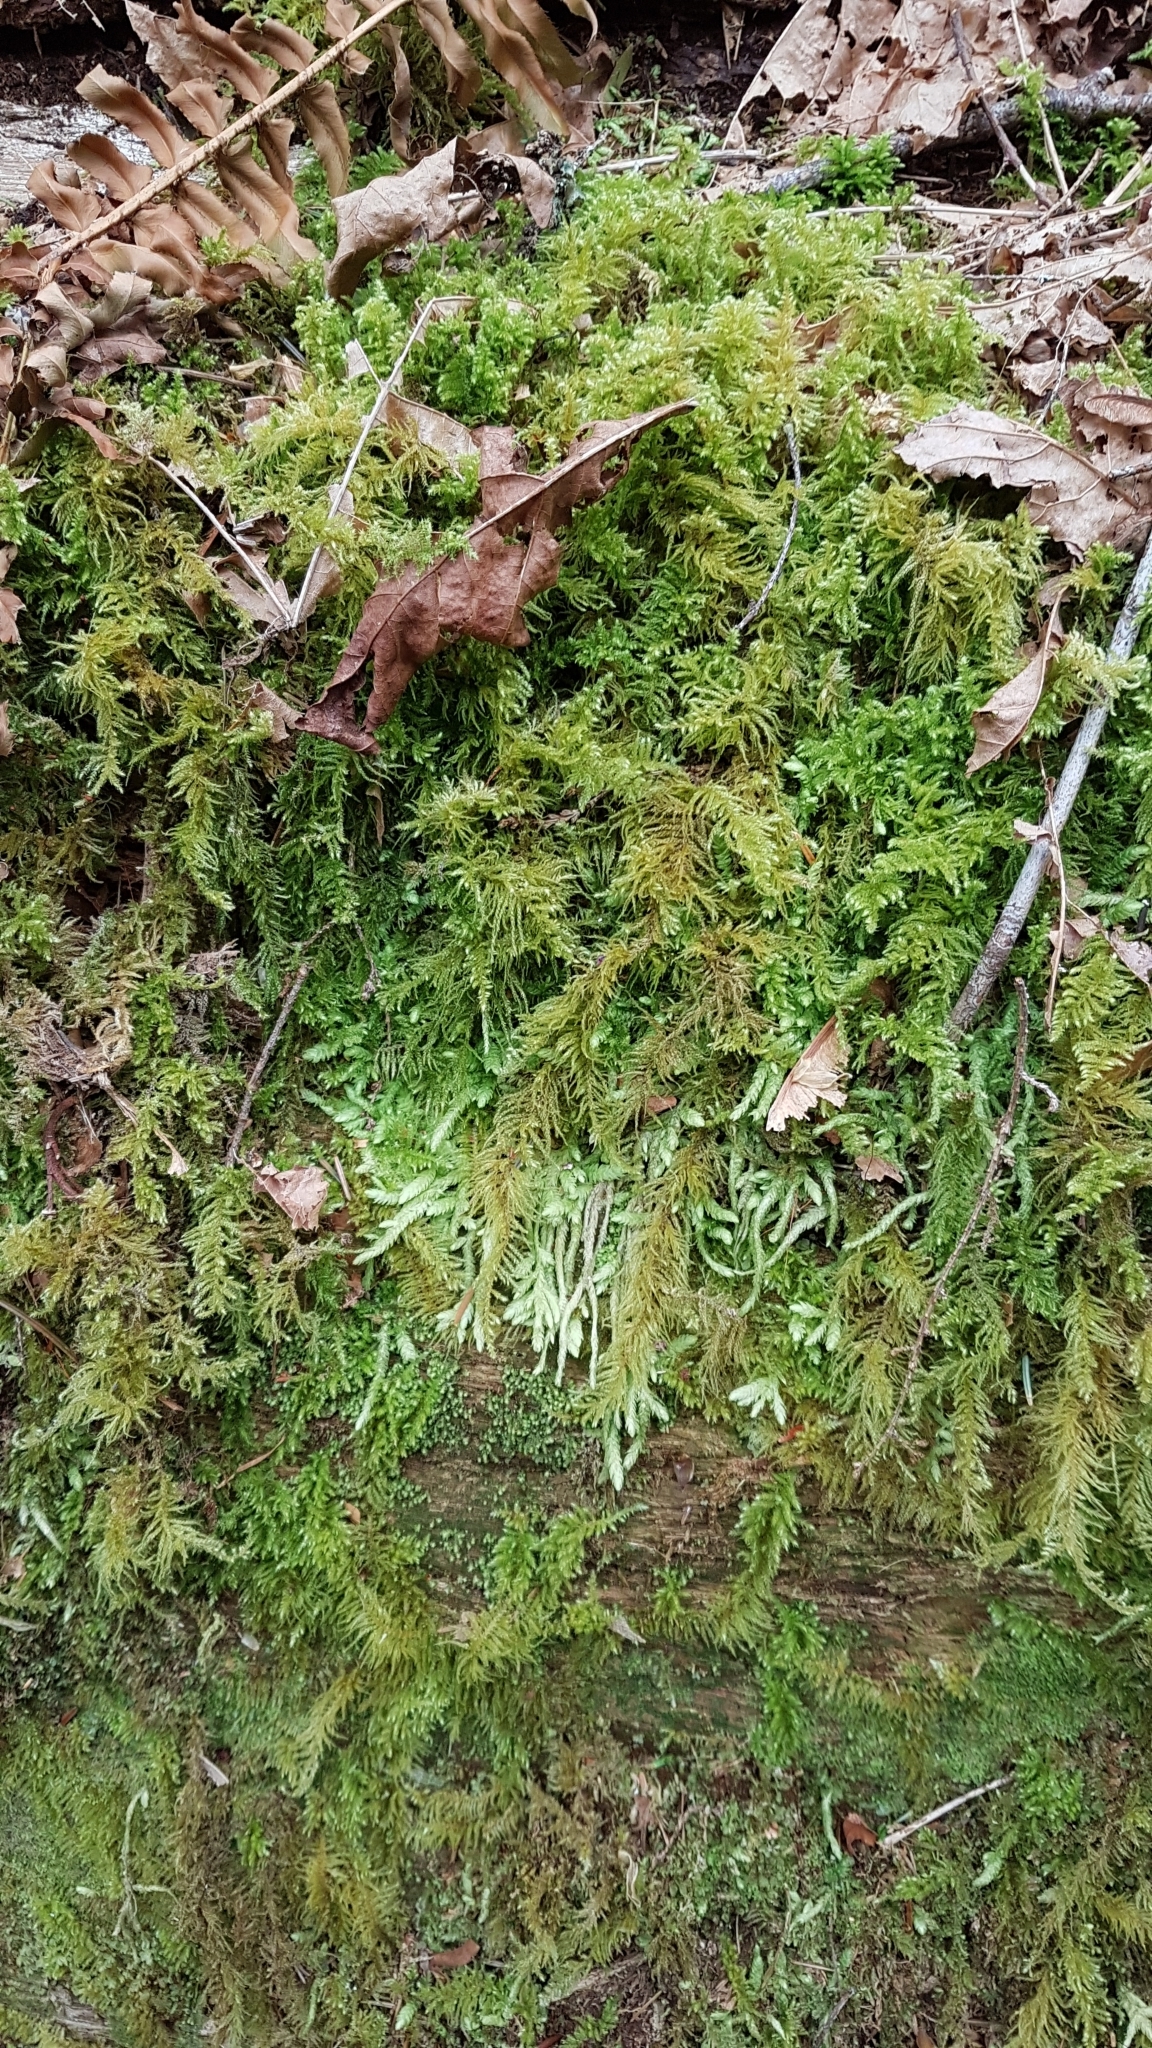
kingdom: Plantae
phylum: Bryophyta
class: Bryopsida
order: Hypnales
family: Plagiotheciaceae
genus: Plagiothecium
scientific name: Plagiothecium undulatum
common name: Waved silk-moss
